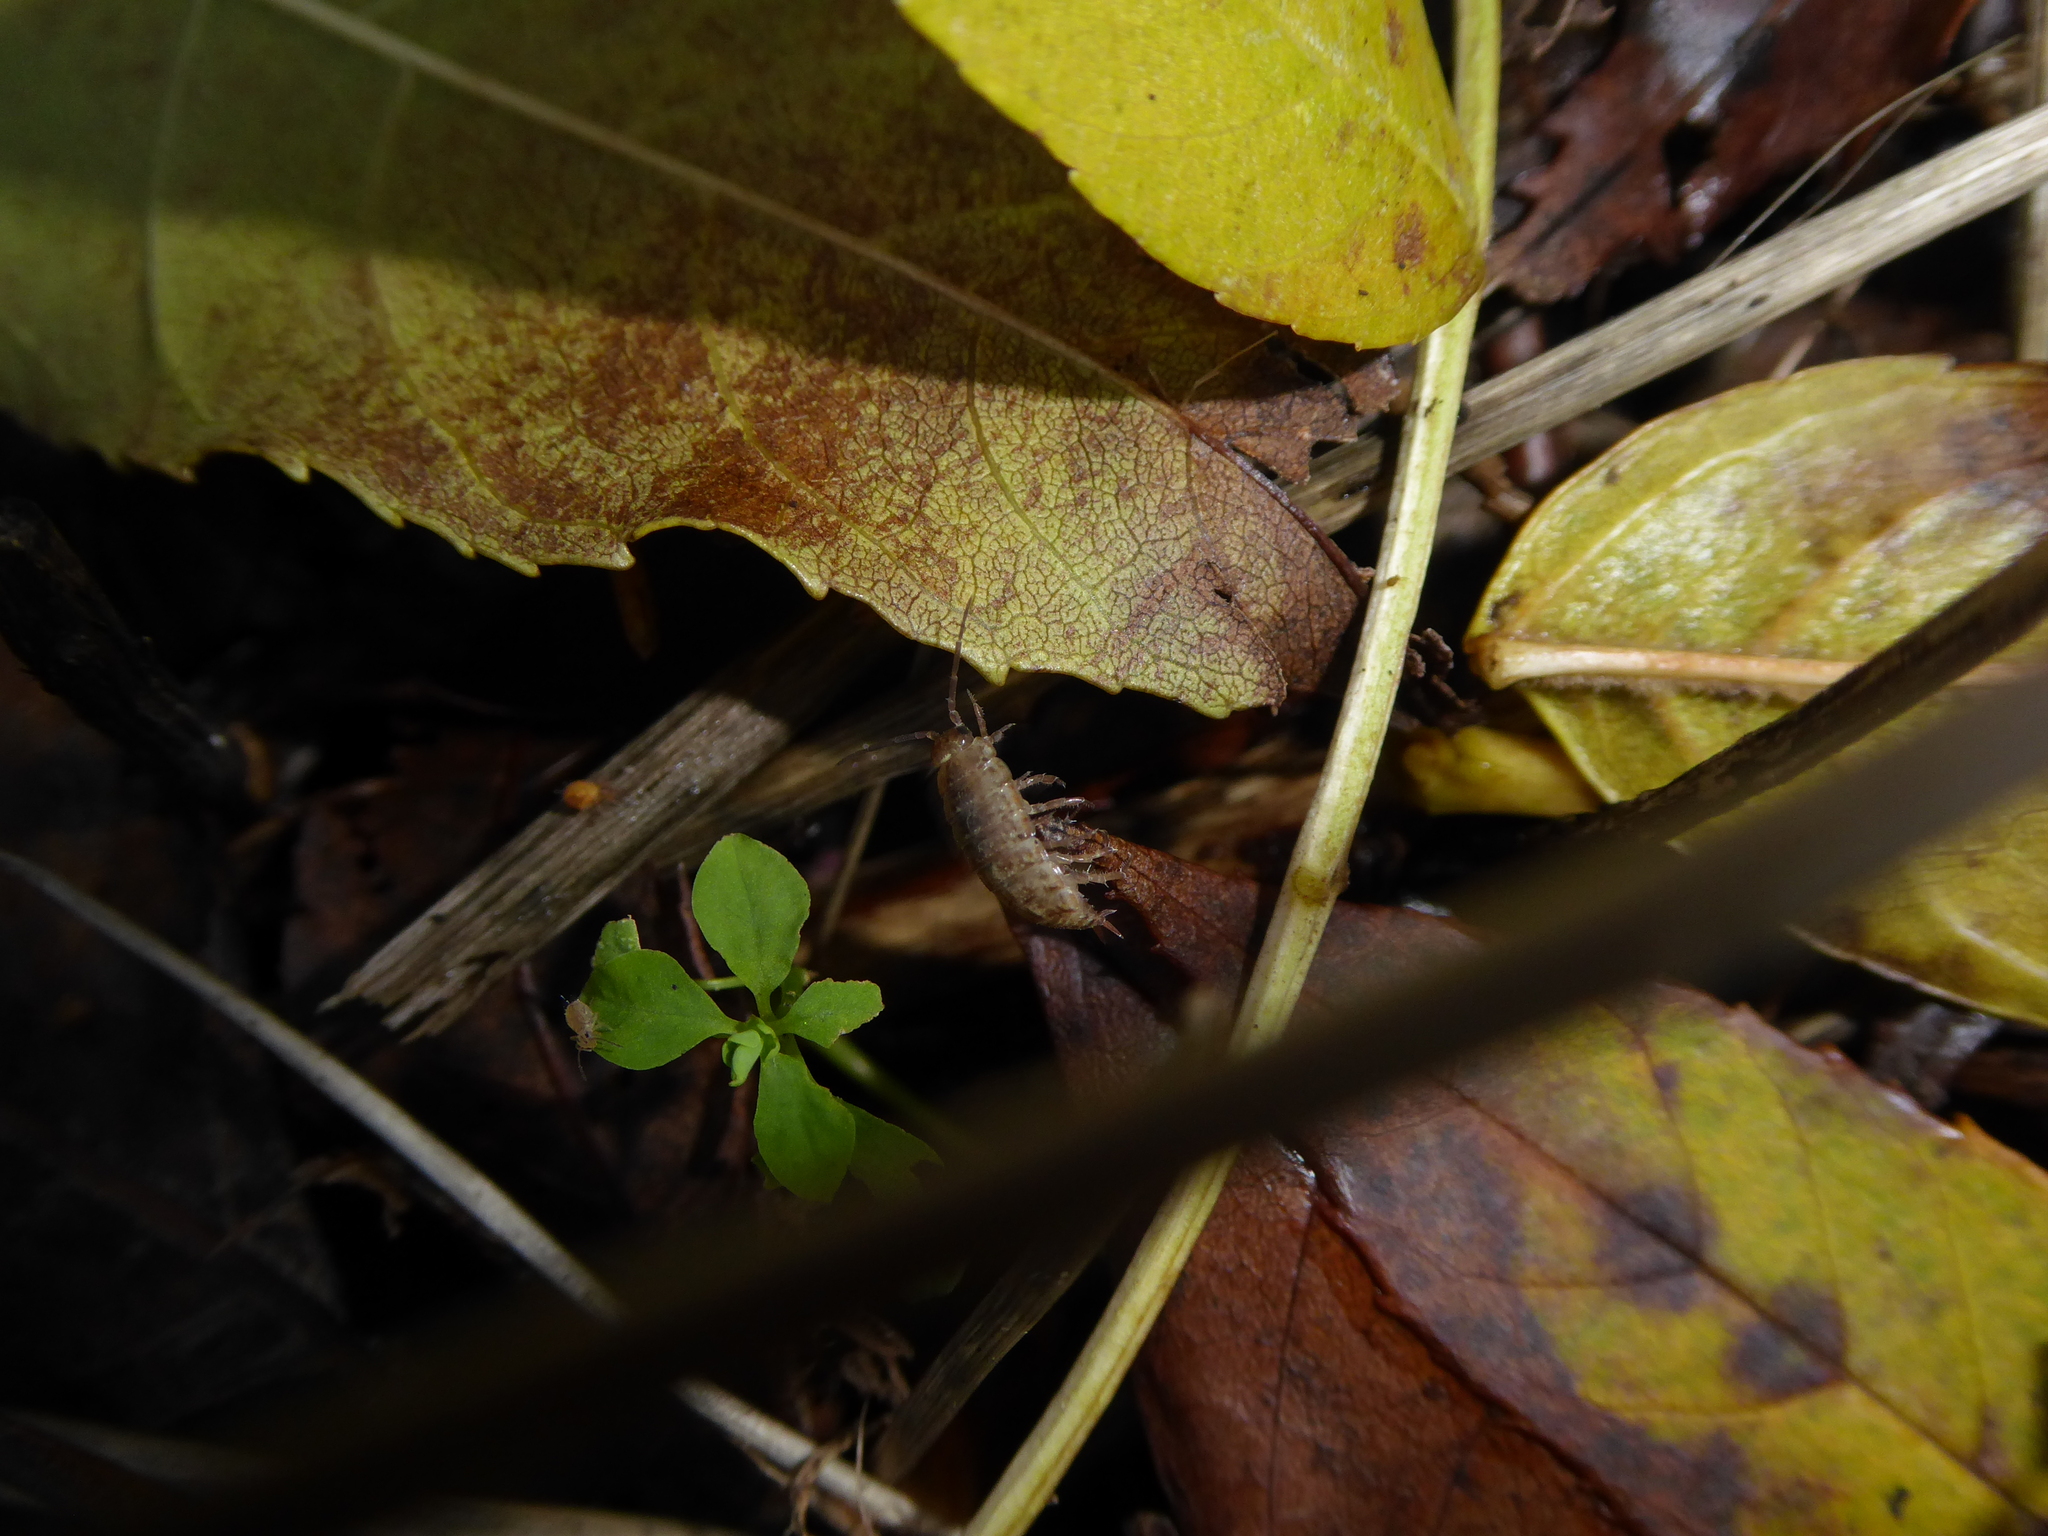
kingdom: Animalia
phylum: Arthropoda
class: Malacostraca
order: Isopoda
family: Philosciidae
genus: Philoscia
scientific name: Philoscia muscorum
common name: Common striped woodlouse
